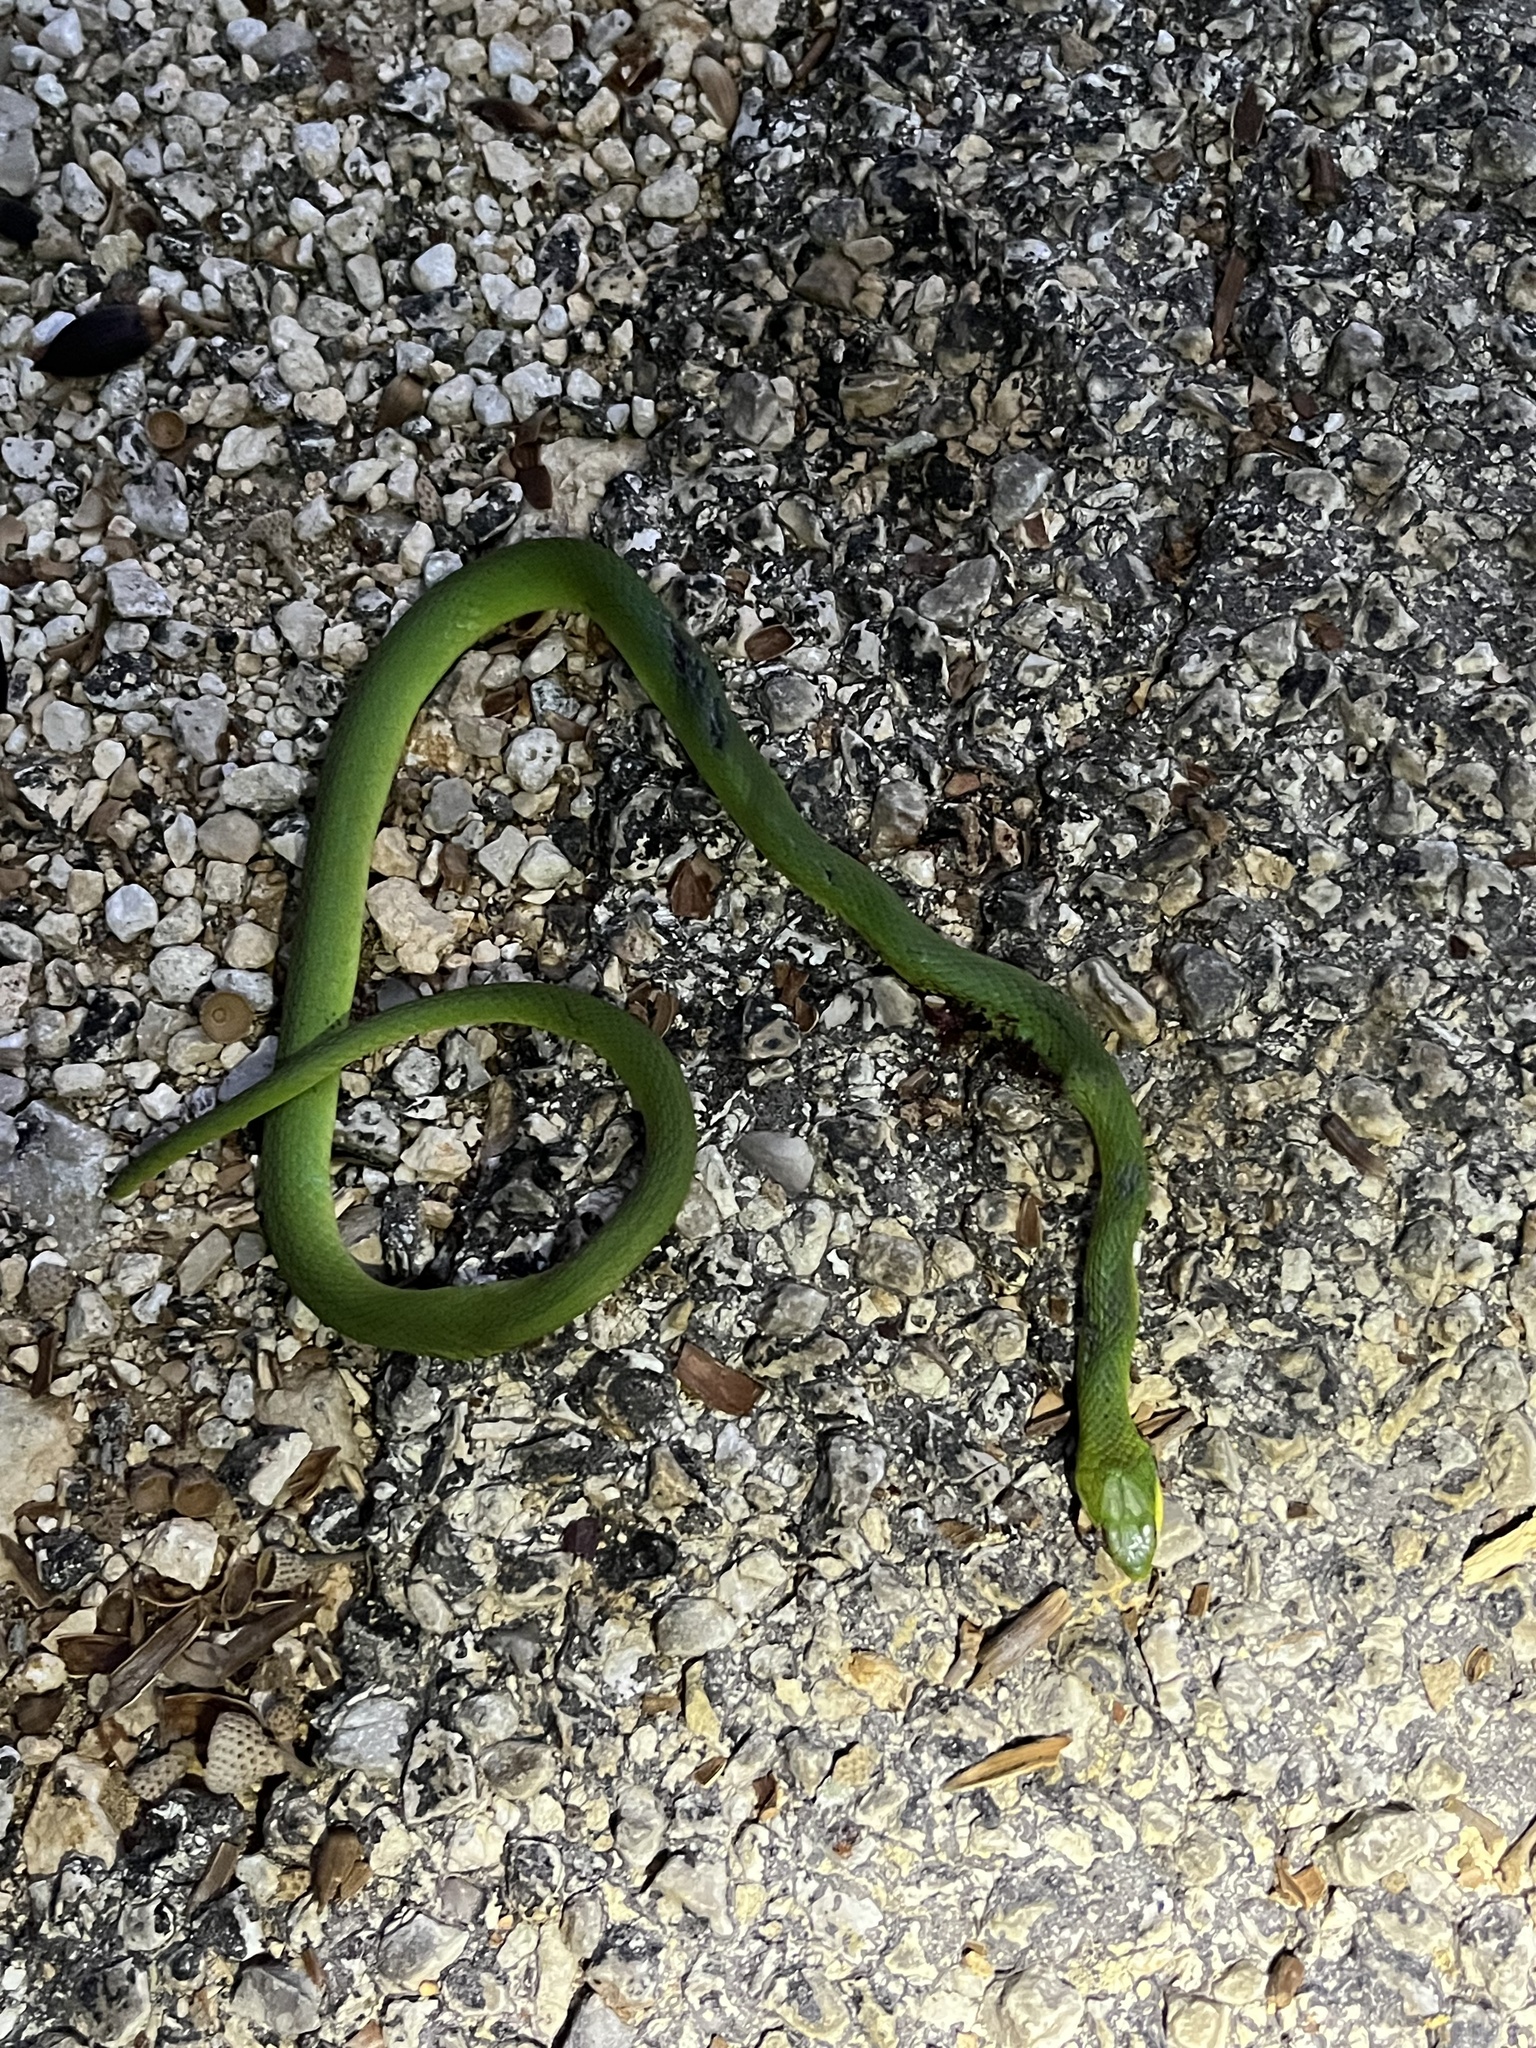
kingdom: Animalia
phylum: Chordata
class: Squamata
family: Colubridae
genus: Opheodrys
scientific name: Opheodrys aestivus
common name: Rough greensnake
